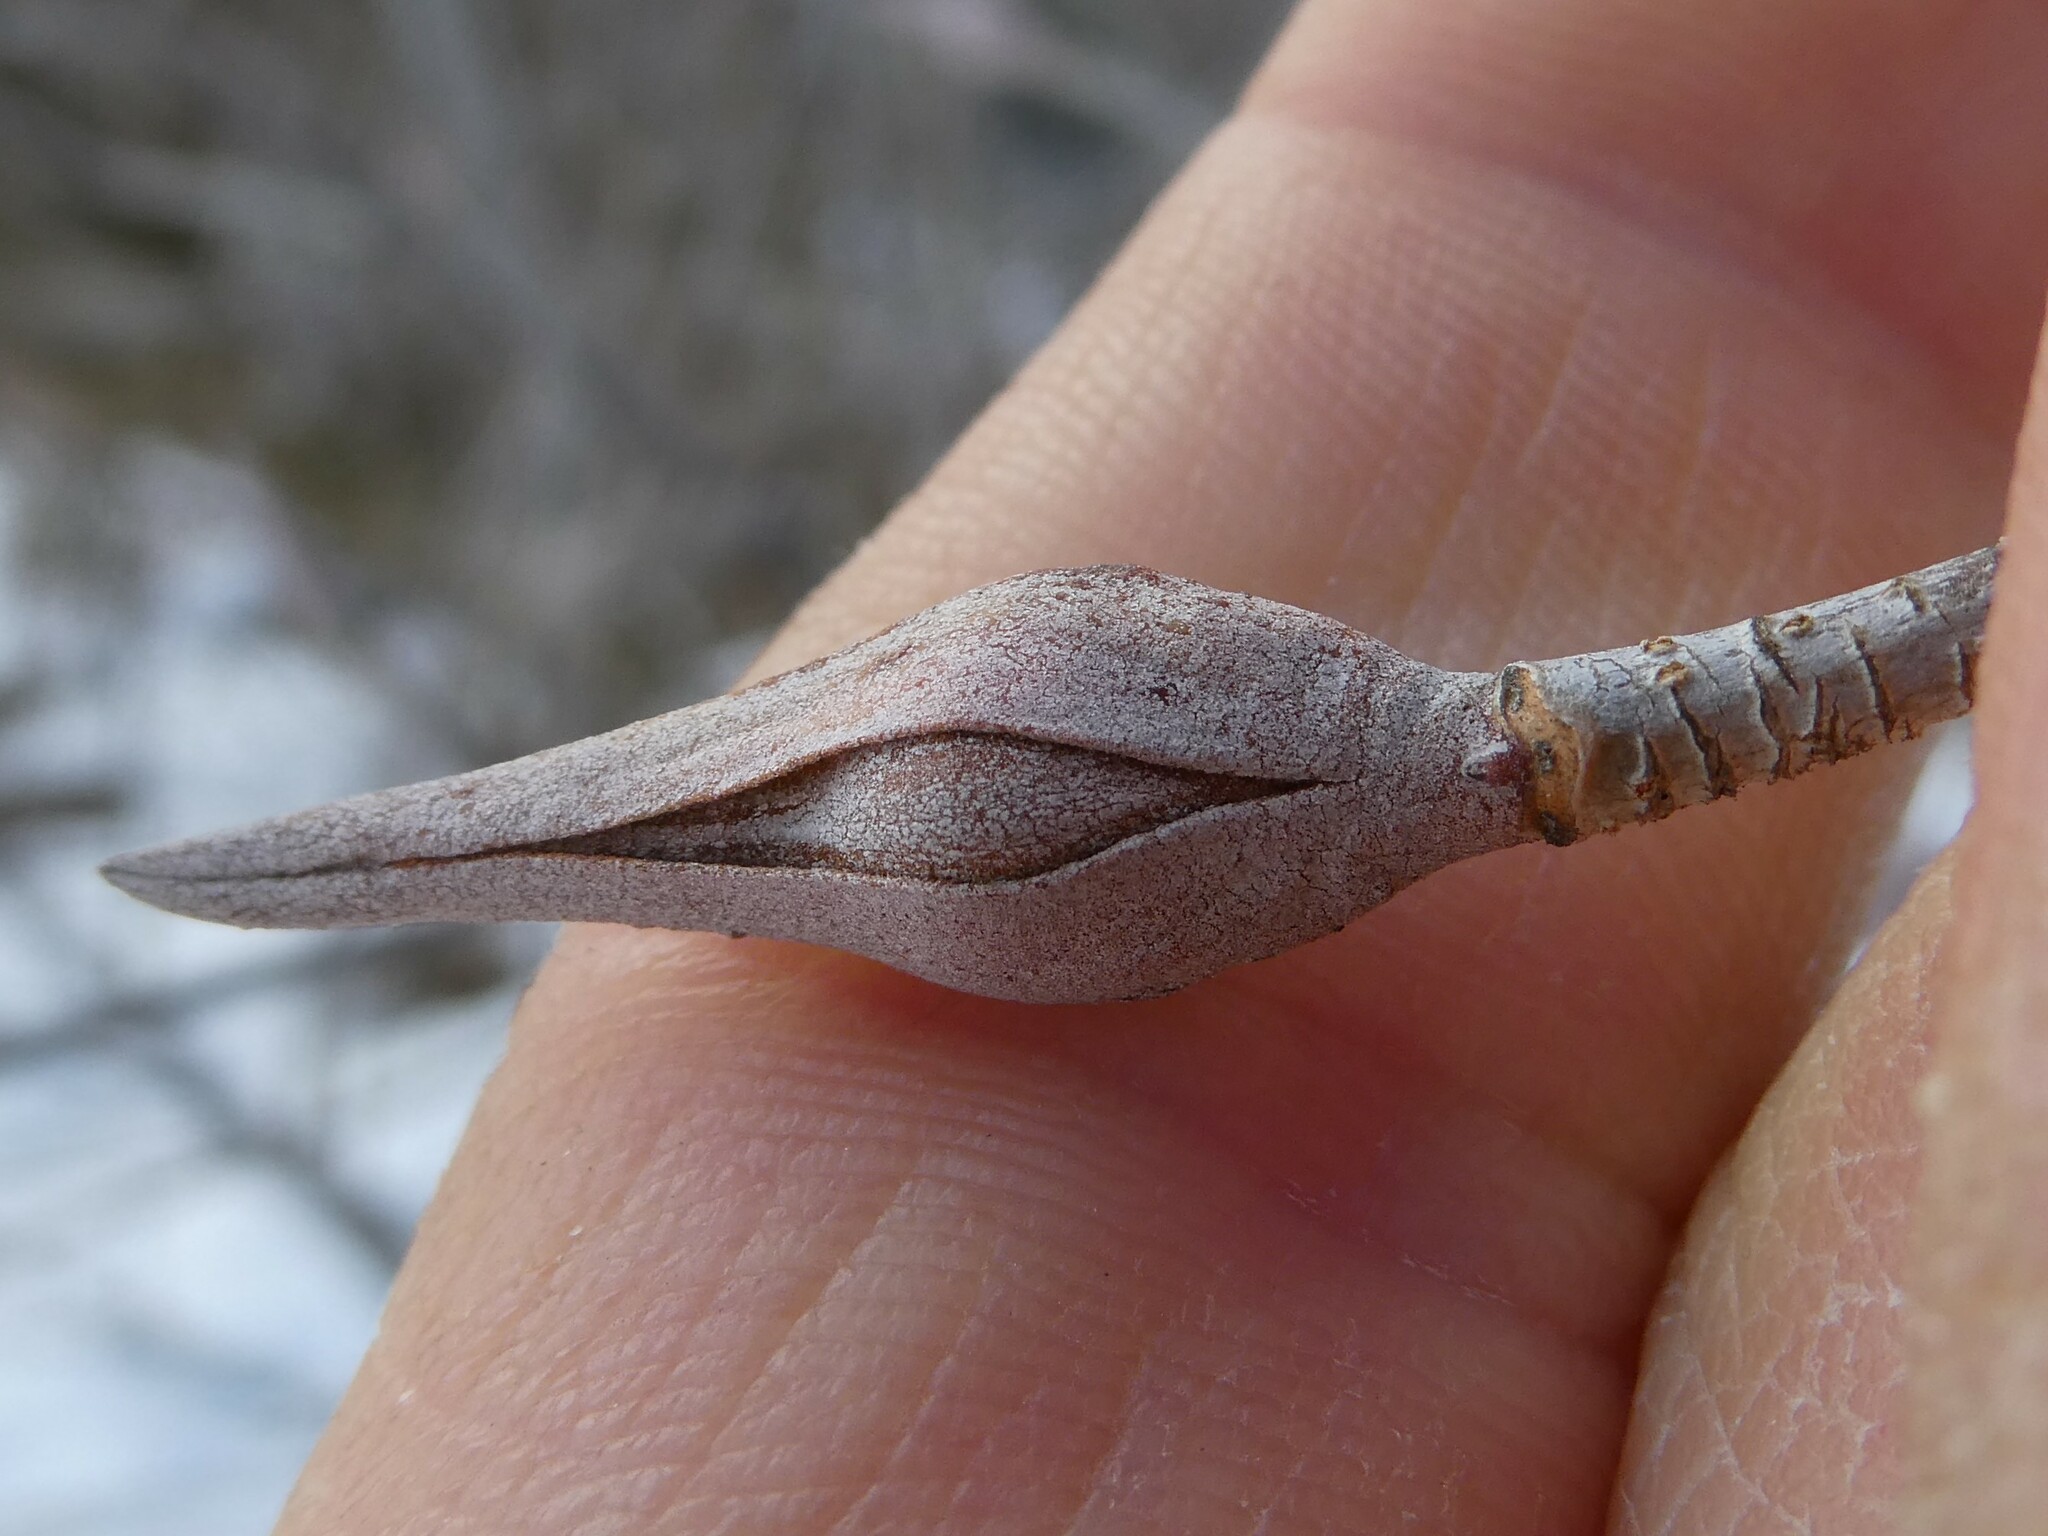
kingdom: Plantae
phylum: Tracheophyta
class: Magnoliopsida
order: Dipsacales
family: Viburnaceae
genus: Viburnum
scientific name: Viburnum lentago
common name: Black haw
